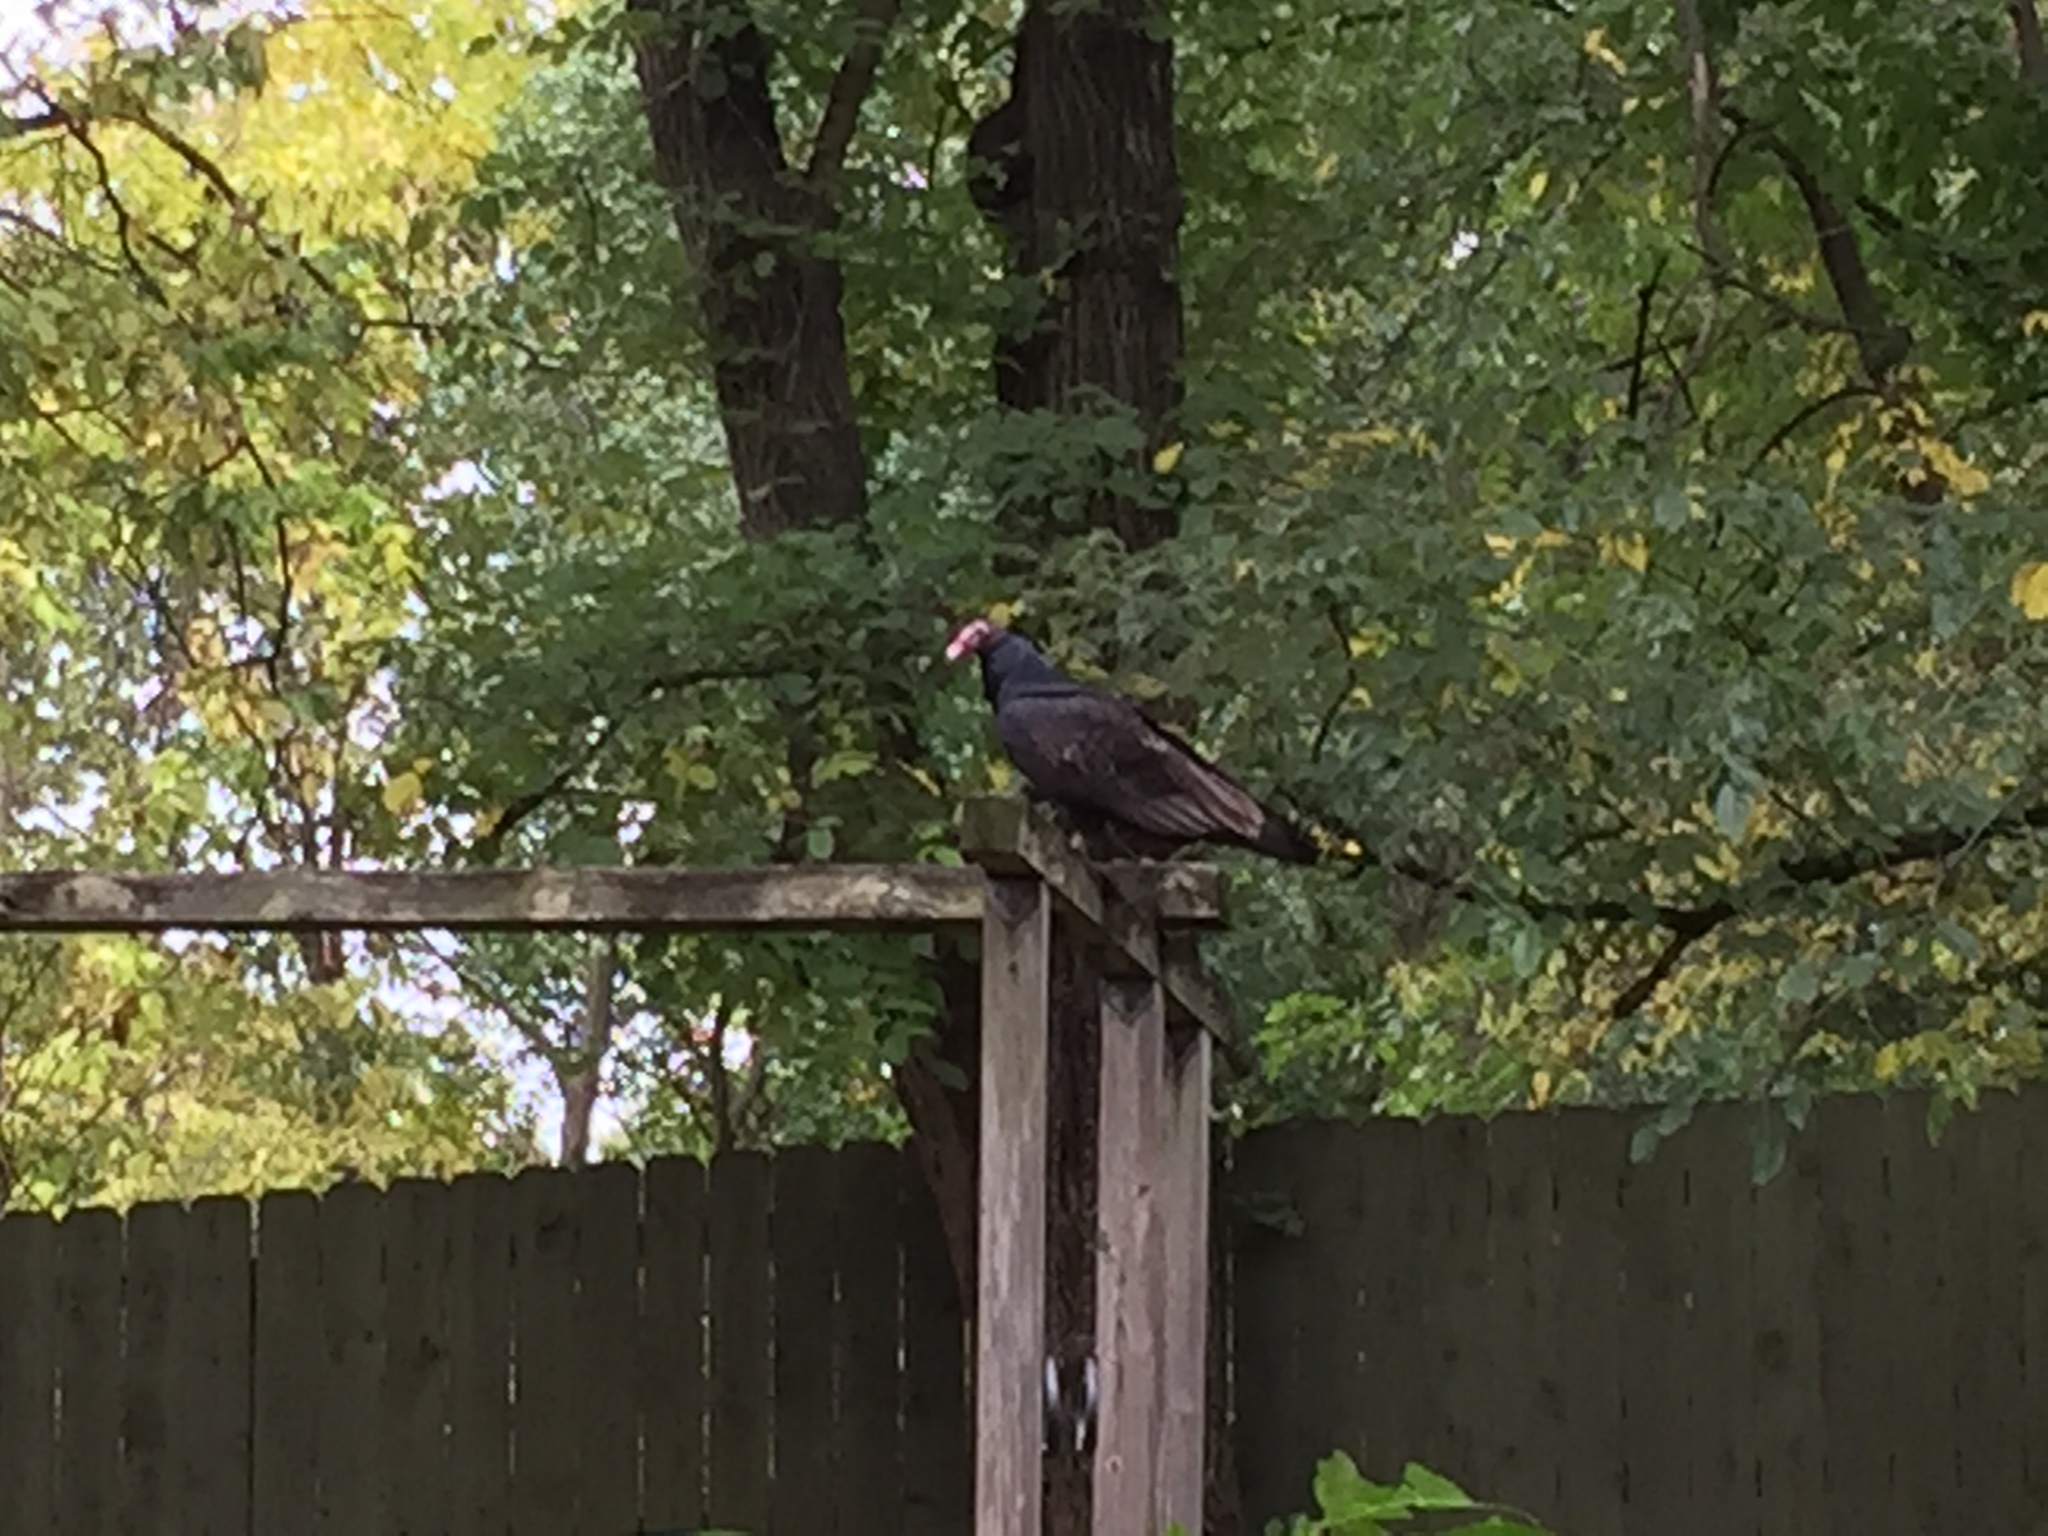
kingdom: Animalia
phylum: Chordata
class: Aves
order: Accipitriformes
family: Cathartidae
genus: Cathartes
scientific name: Cathartes aura
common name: Turkey vulture
